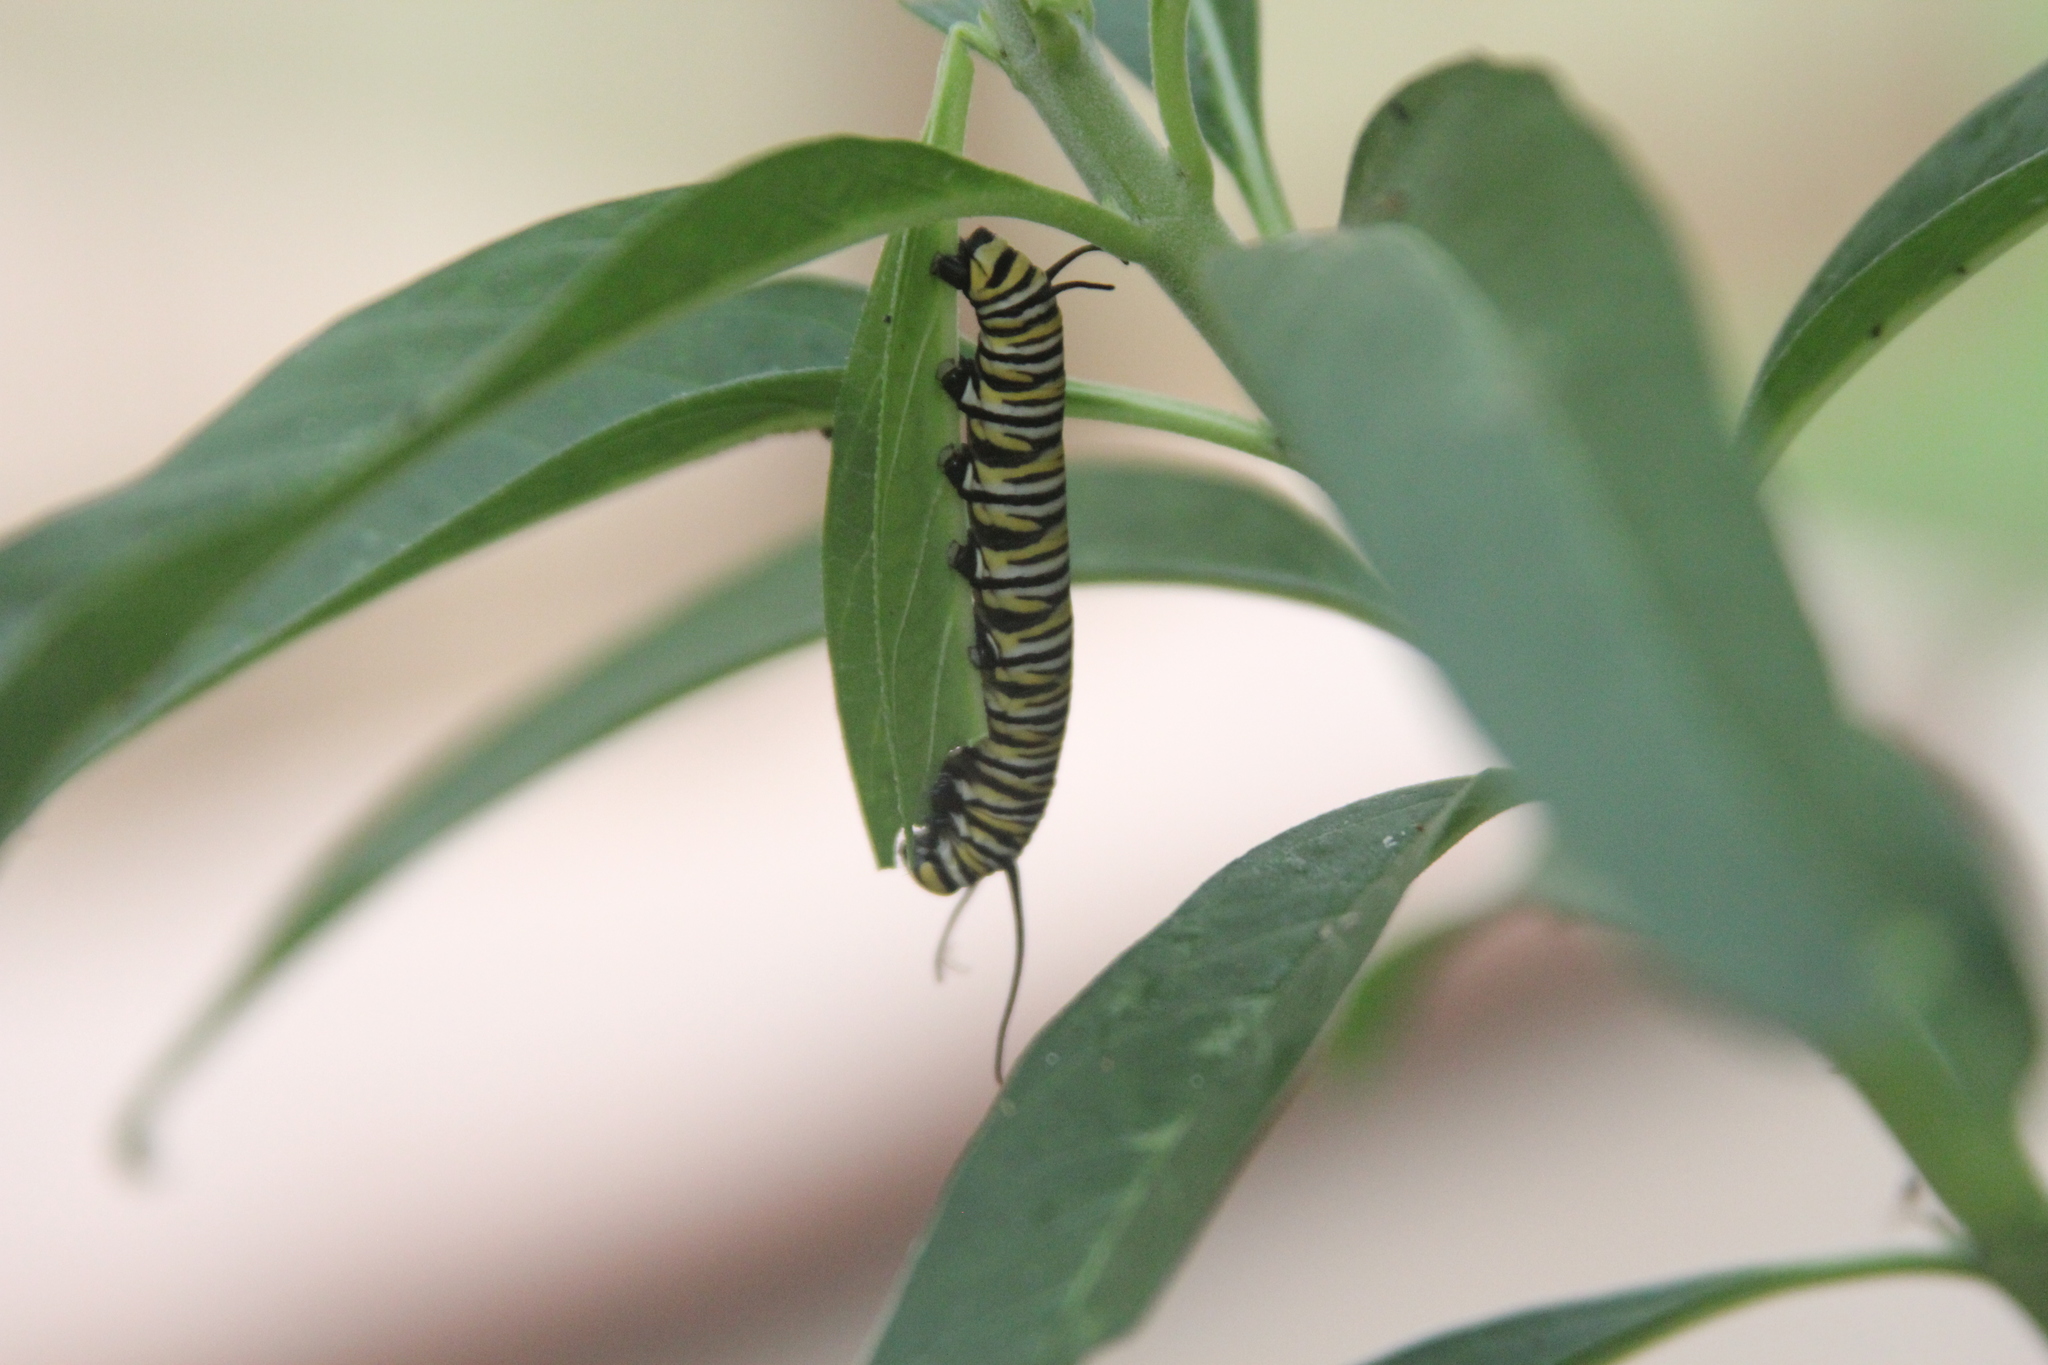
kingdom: Animalia
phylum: Arthropoda
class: Insecta
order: Lepidoptera
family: Nymphalidae
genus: Danaus
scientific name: Danaus plexippus
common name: Monarch
